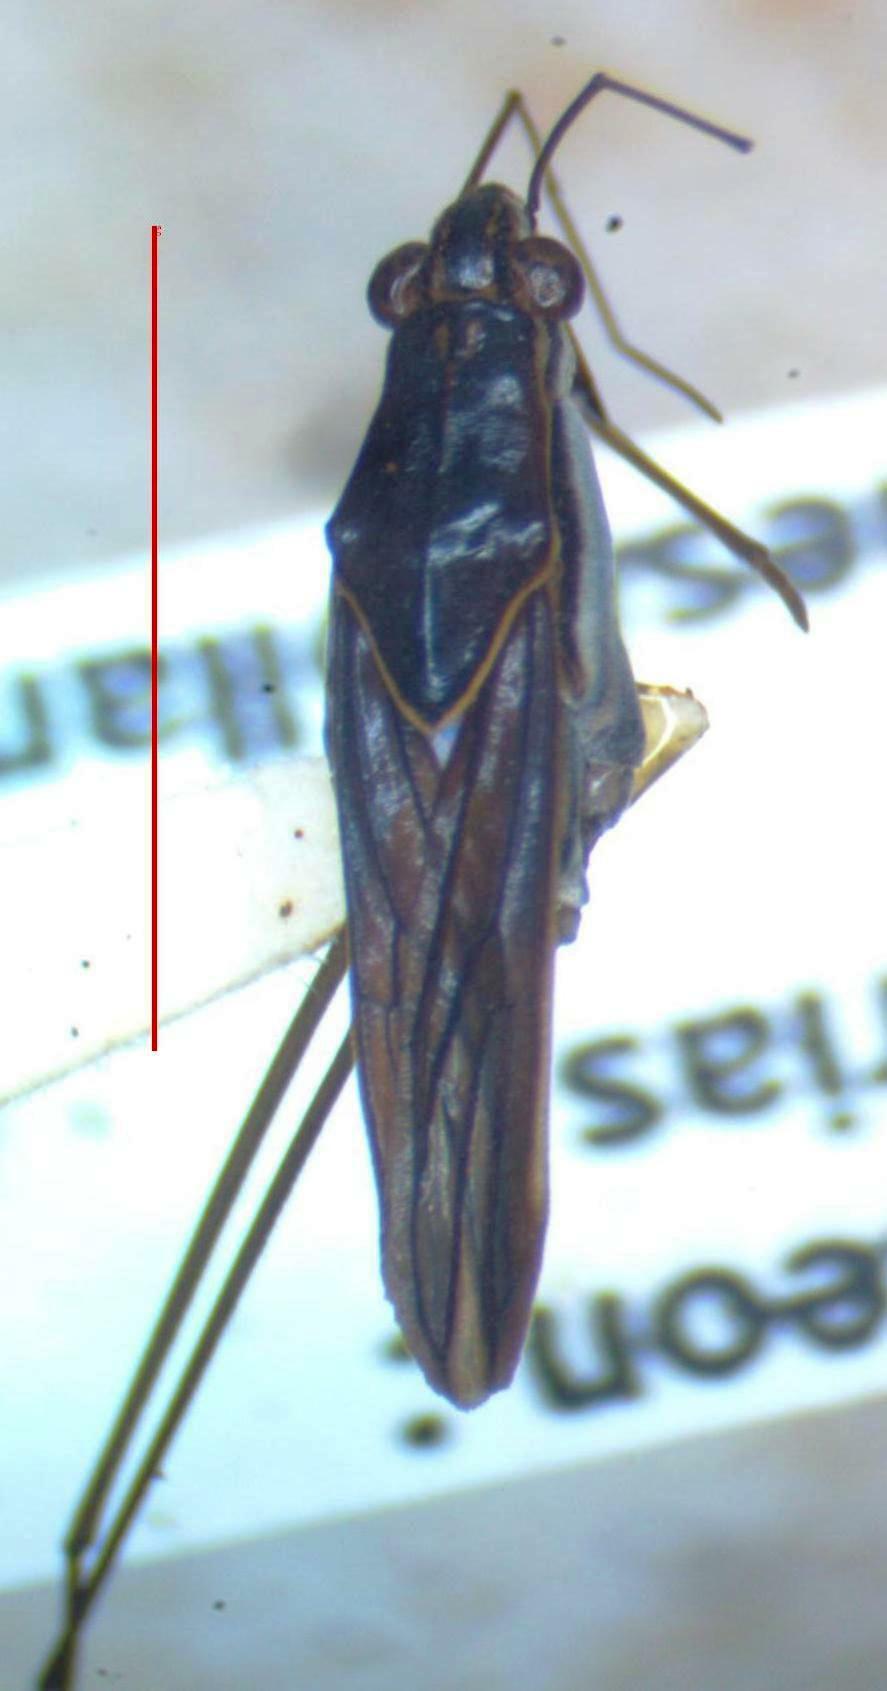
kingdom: Animalia
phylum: Arthropoda
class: Insecta
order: Hemiptera
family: Gerridae
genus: Limnogonus
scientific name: Limnogonus
